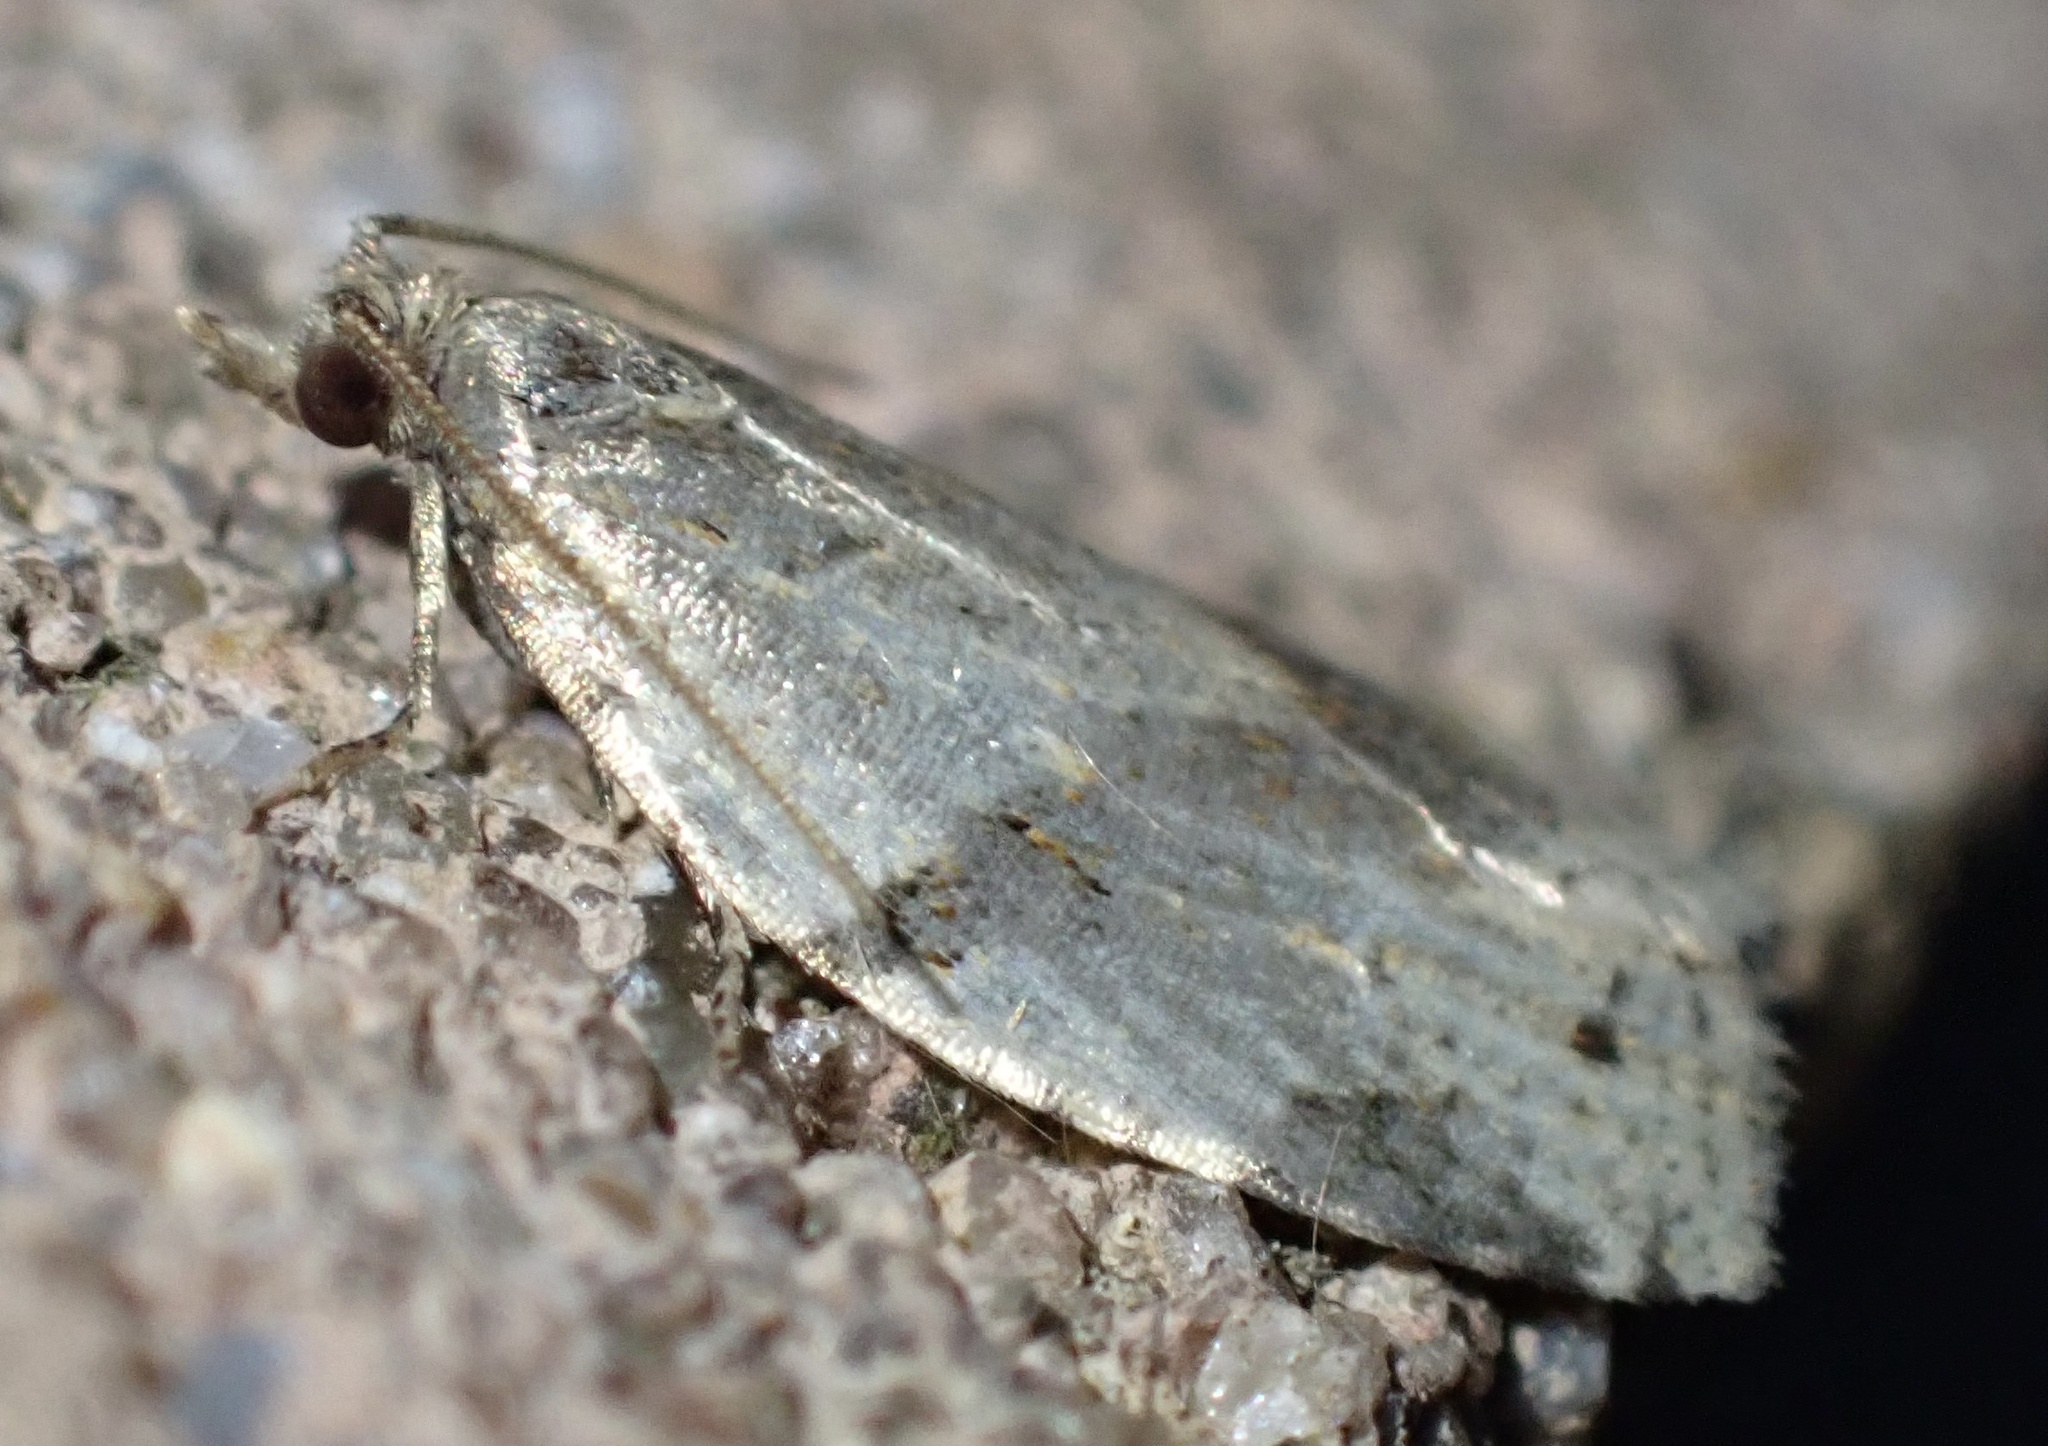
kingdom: Animalia
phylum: Arthropoda
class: Insecta
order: Lepidoptera
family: Tortricidae
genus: Clepsis
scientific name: Clepsis spectrana
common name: Cyclamen tortrix
